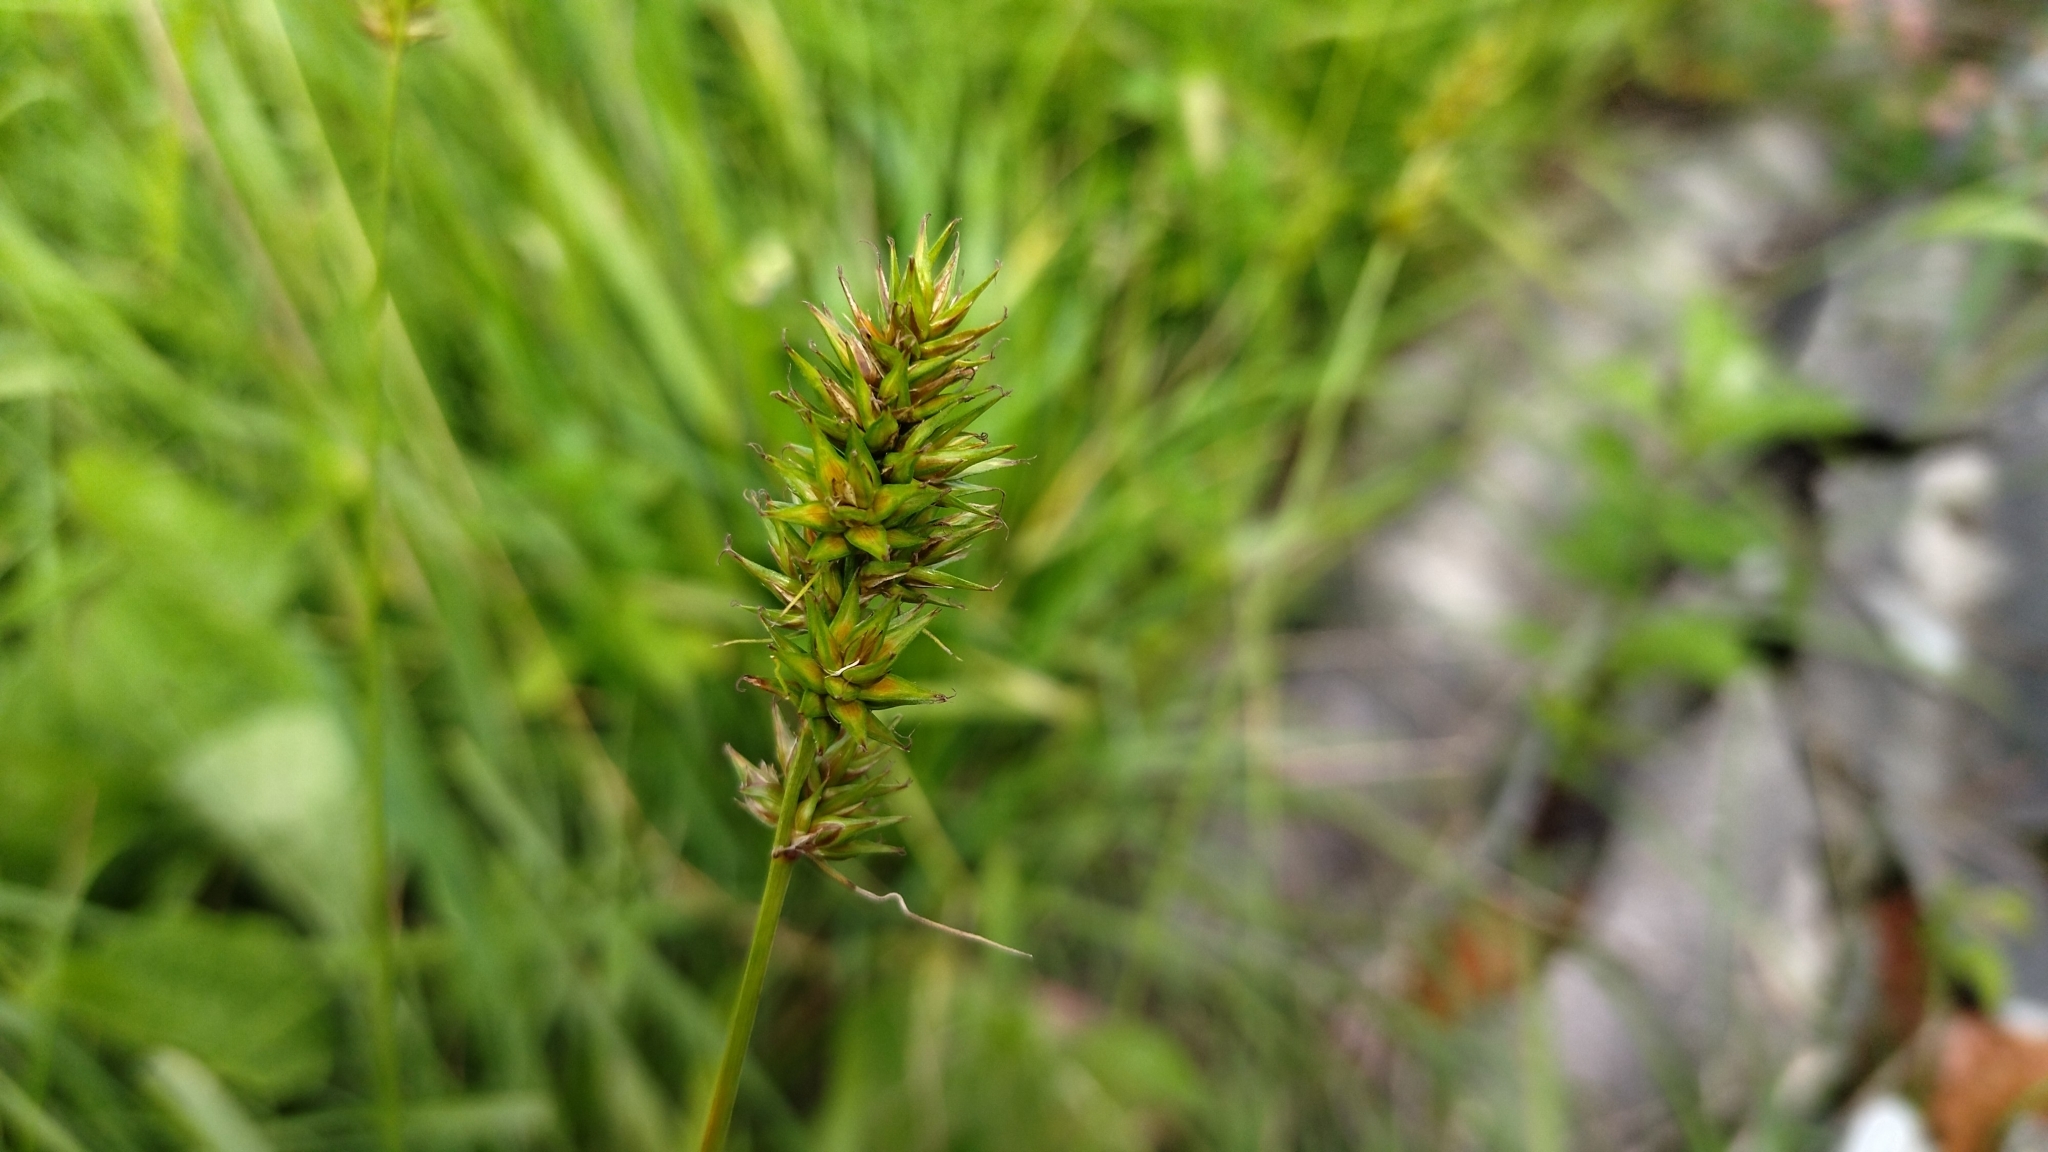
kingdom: Plantae
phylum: Tracheophyta
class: Liliopsida
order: Poales
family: Cyperaceae
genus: Carex
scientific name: Carex spicata
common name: Spiked sedge
